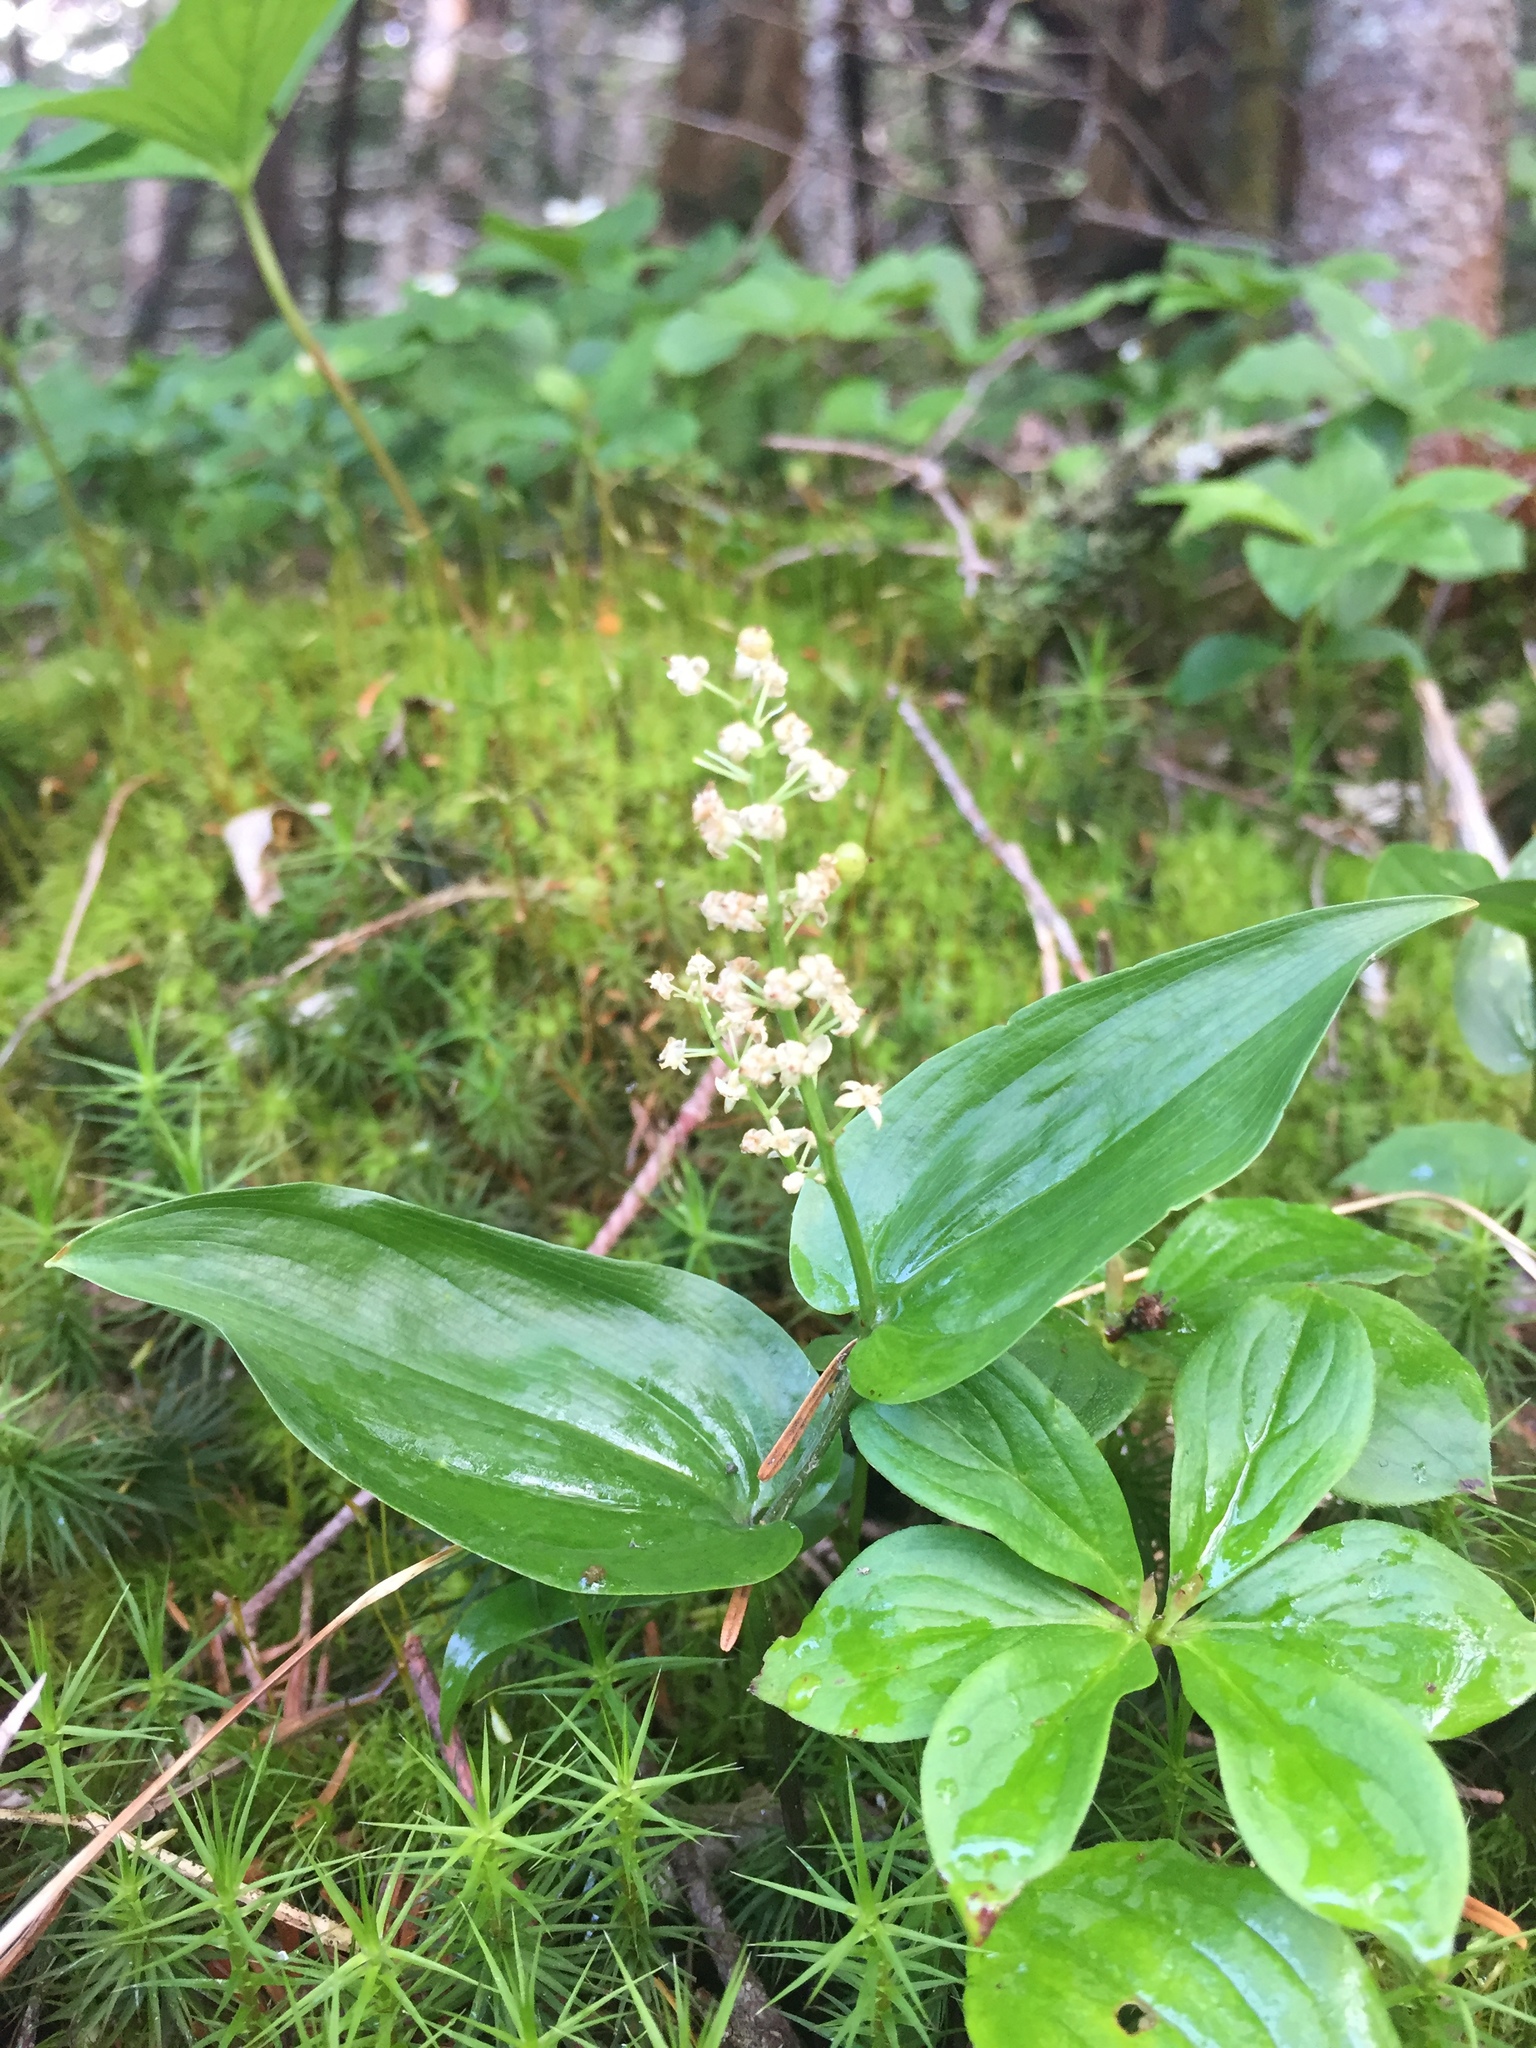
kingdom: Plantae
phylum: Tracheophyta
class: Liliopsida
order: Asparagales
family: Asparagaceae
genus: Maianthemum
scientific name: Maianthemum canadense
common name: False lily-of-the-valley
